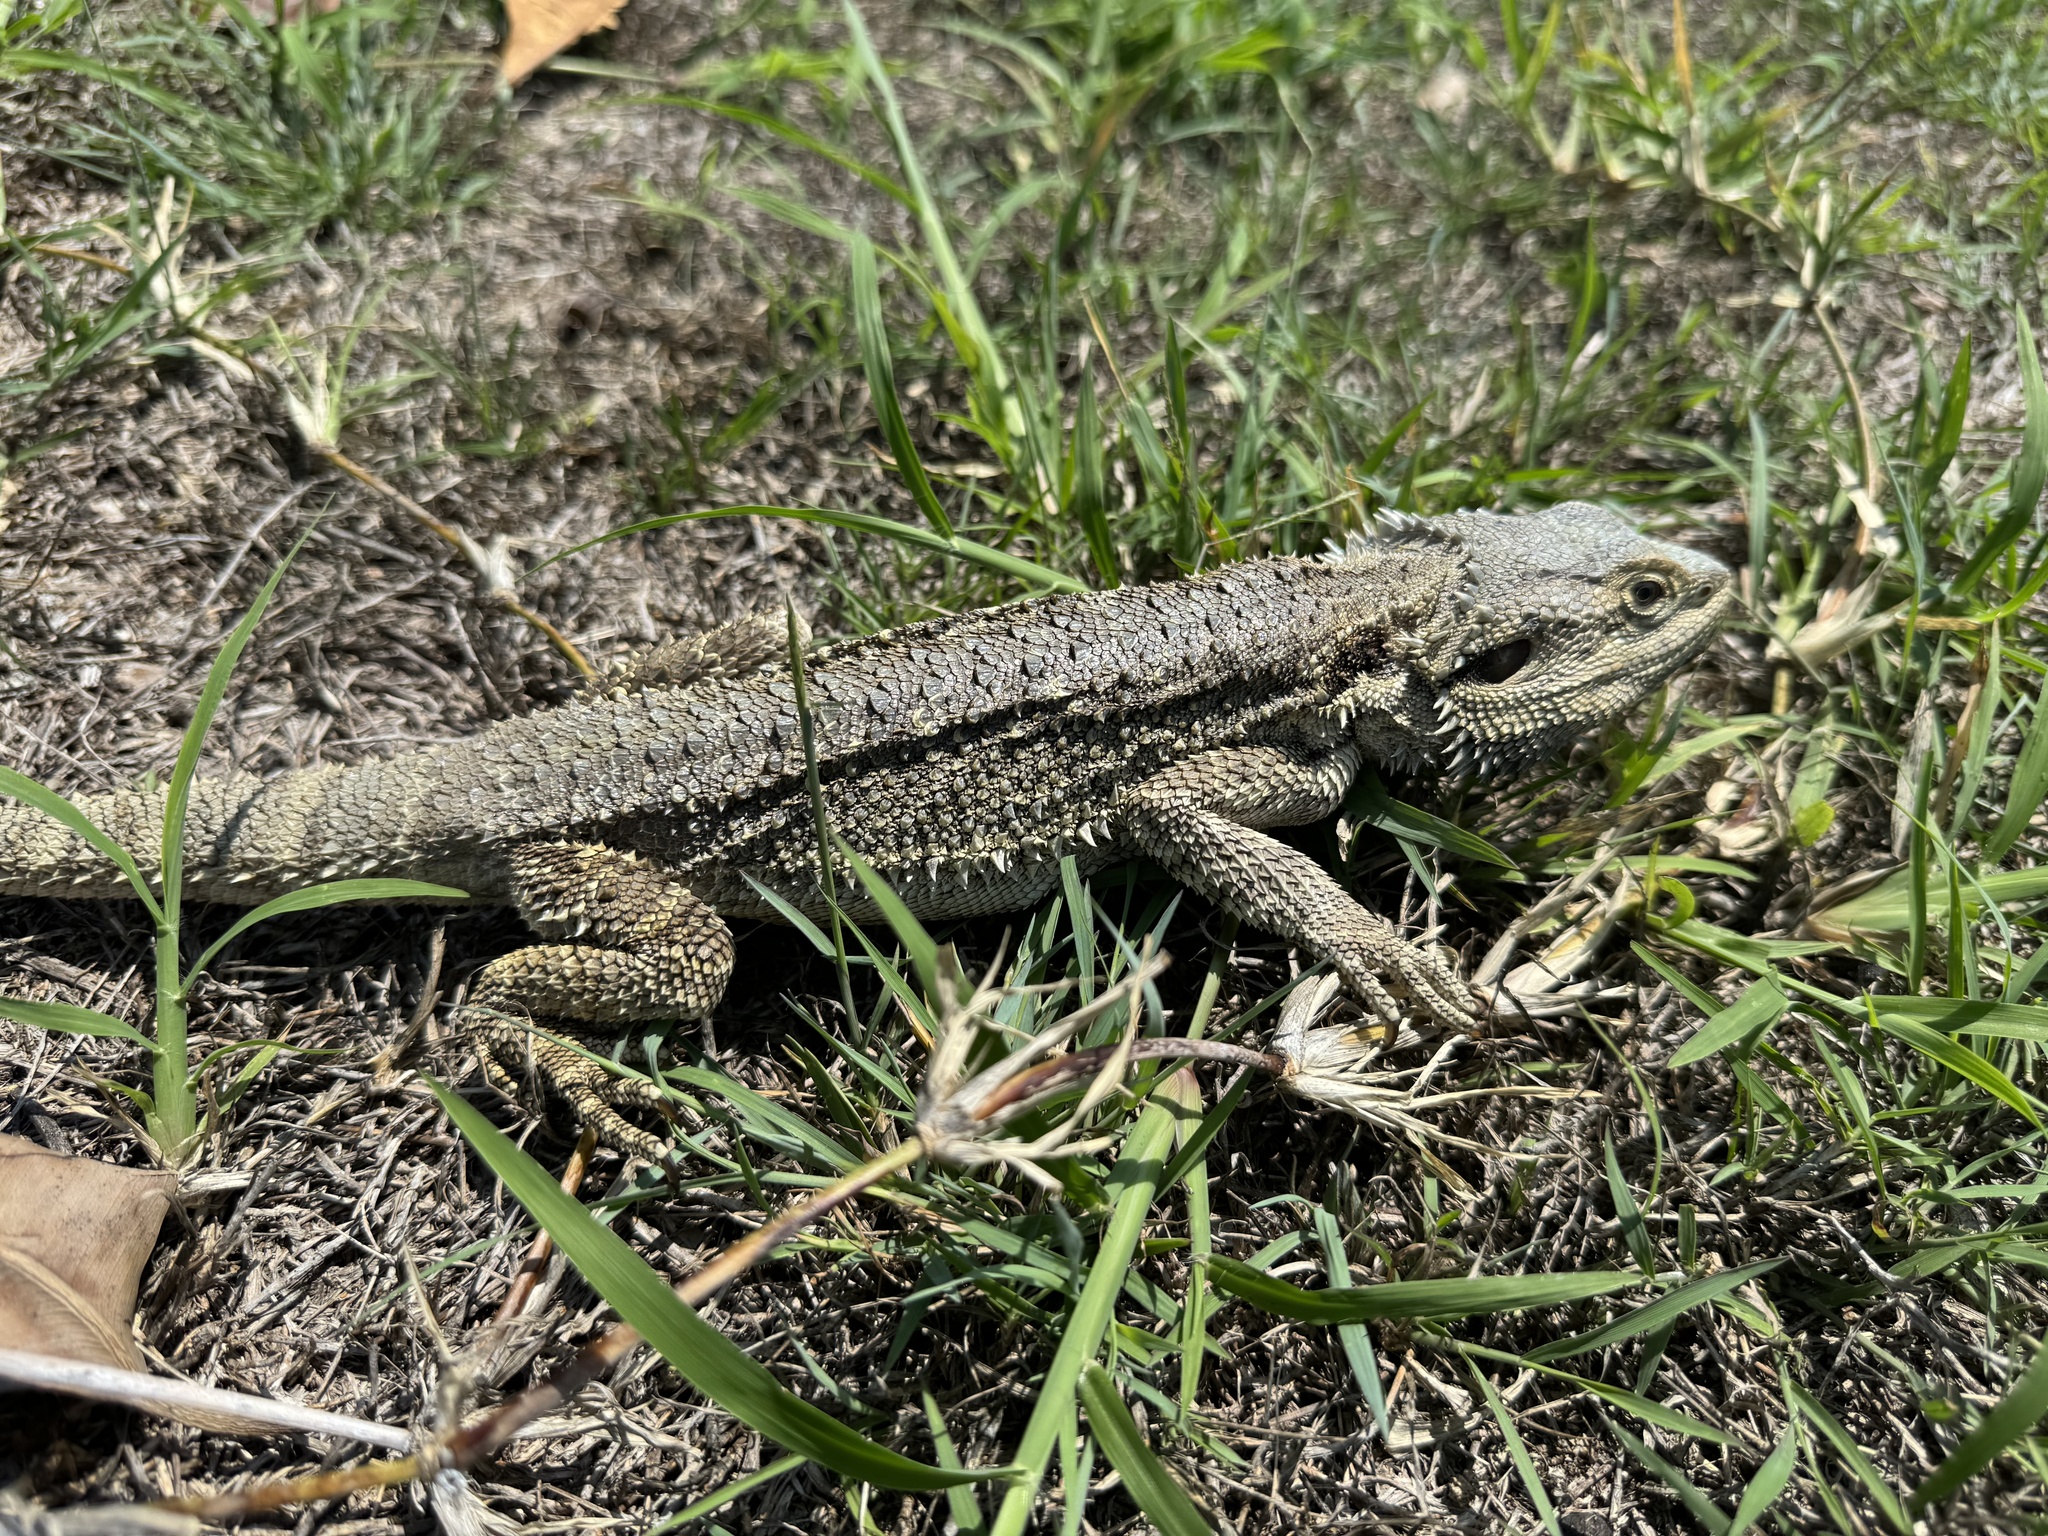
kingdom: Animalia
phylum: Chordata
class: Squamata
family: Agamidae
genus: Pogona
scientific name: Pogona barbata
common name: Bearded dragon
